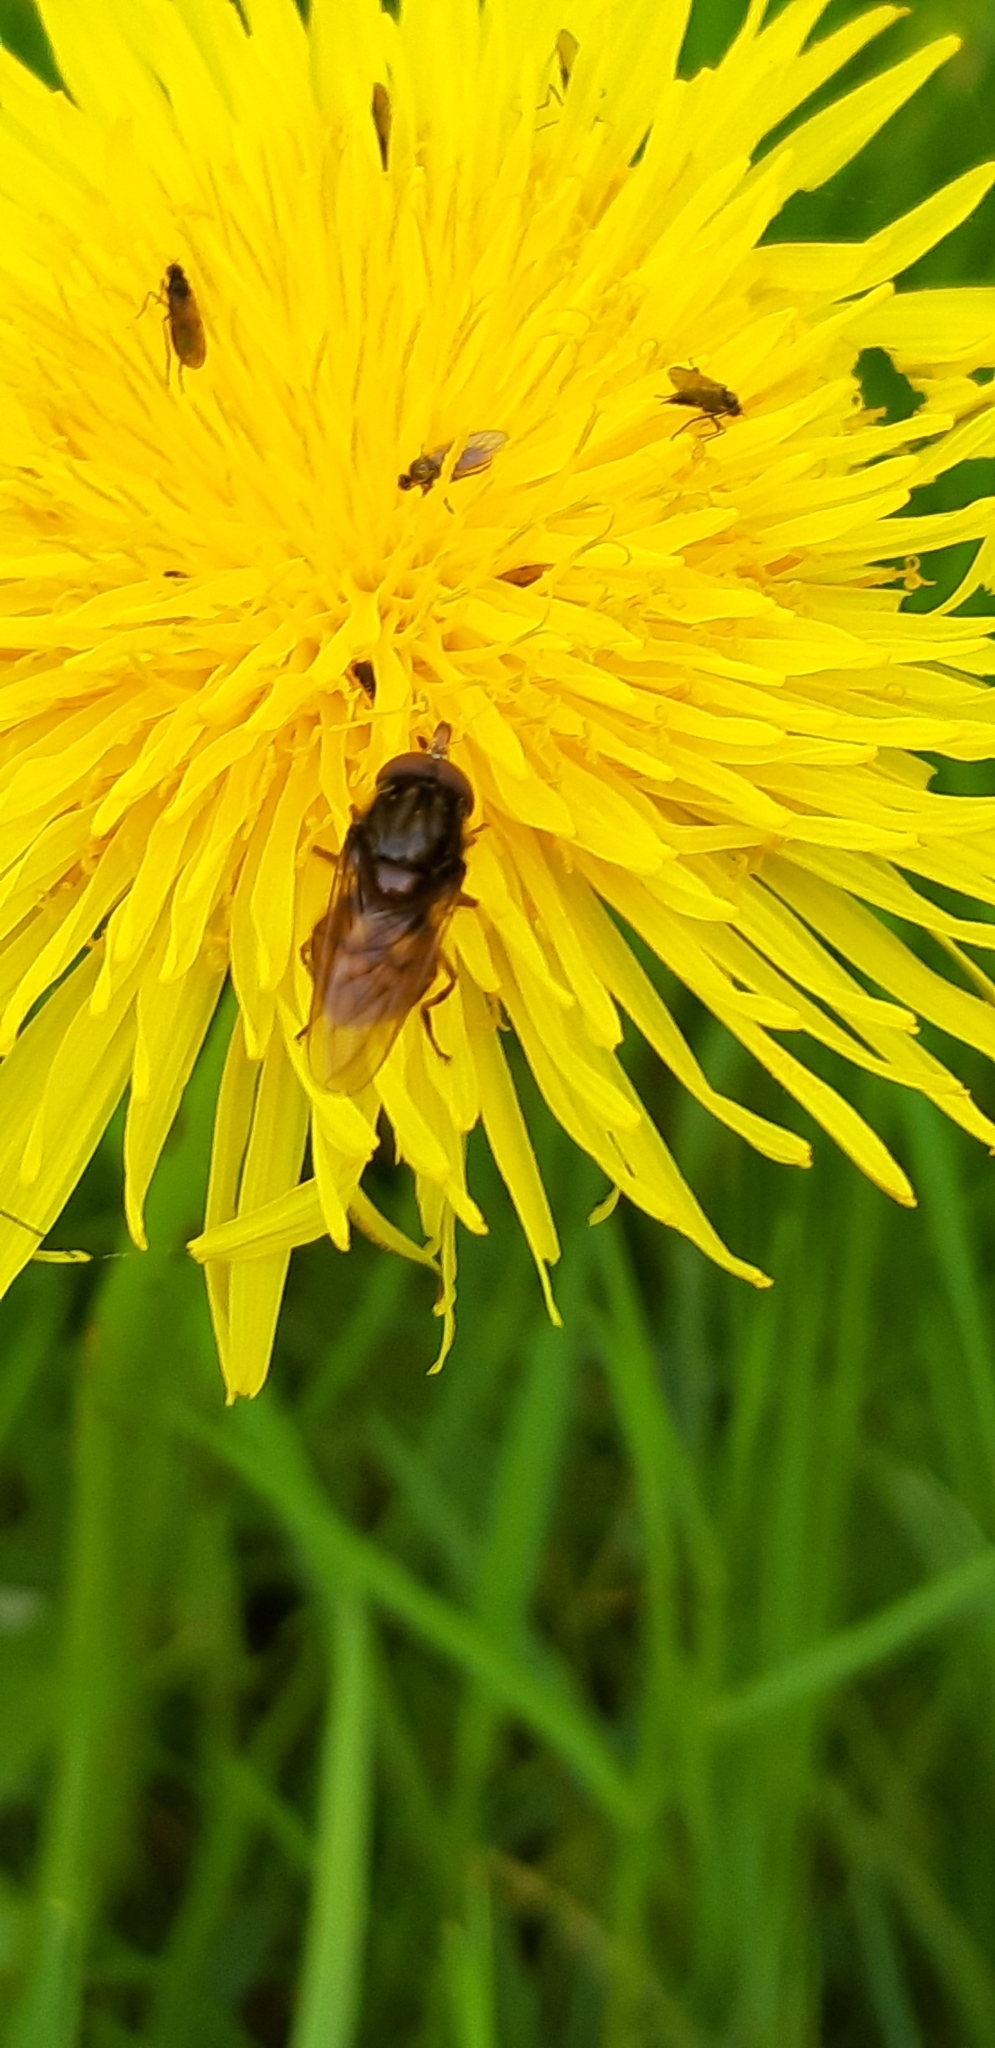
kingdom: Animalia
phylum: Arthropoda
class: Insecta
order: Diptera
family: Syrphidae
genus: Rhingia
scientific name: Rhingia campestris
